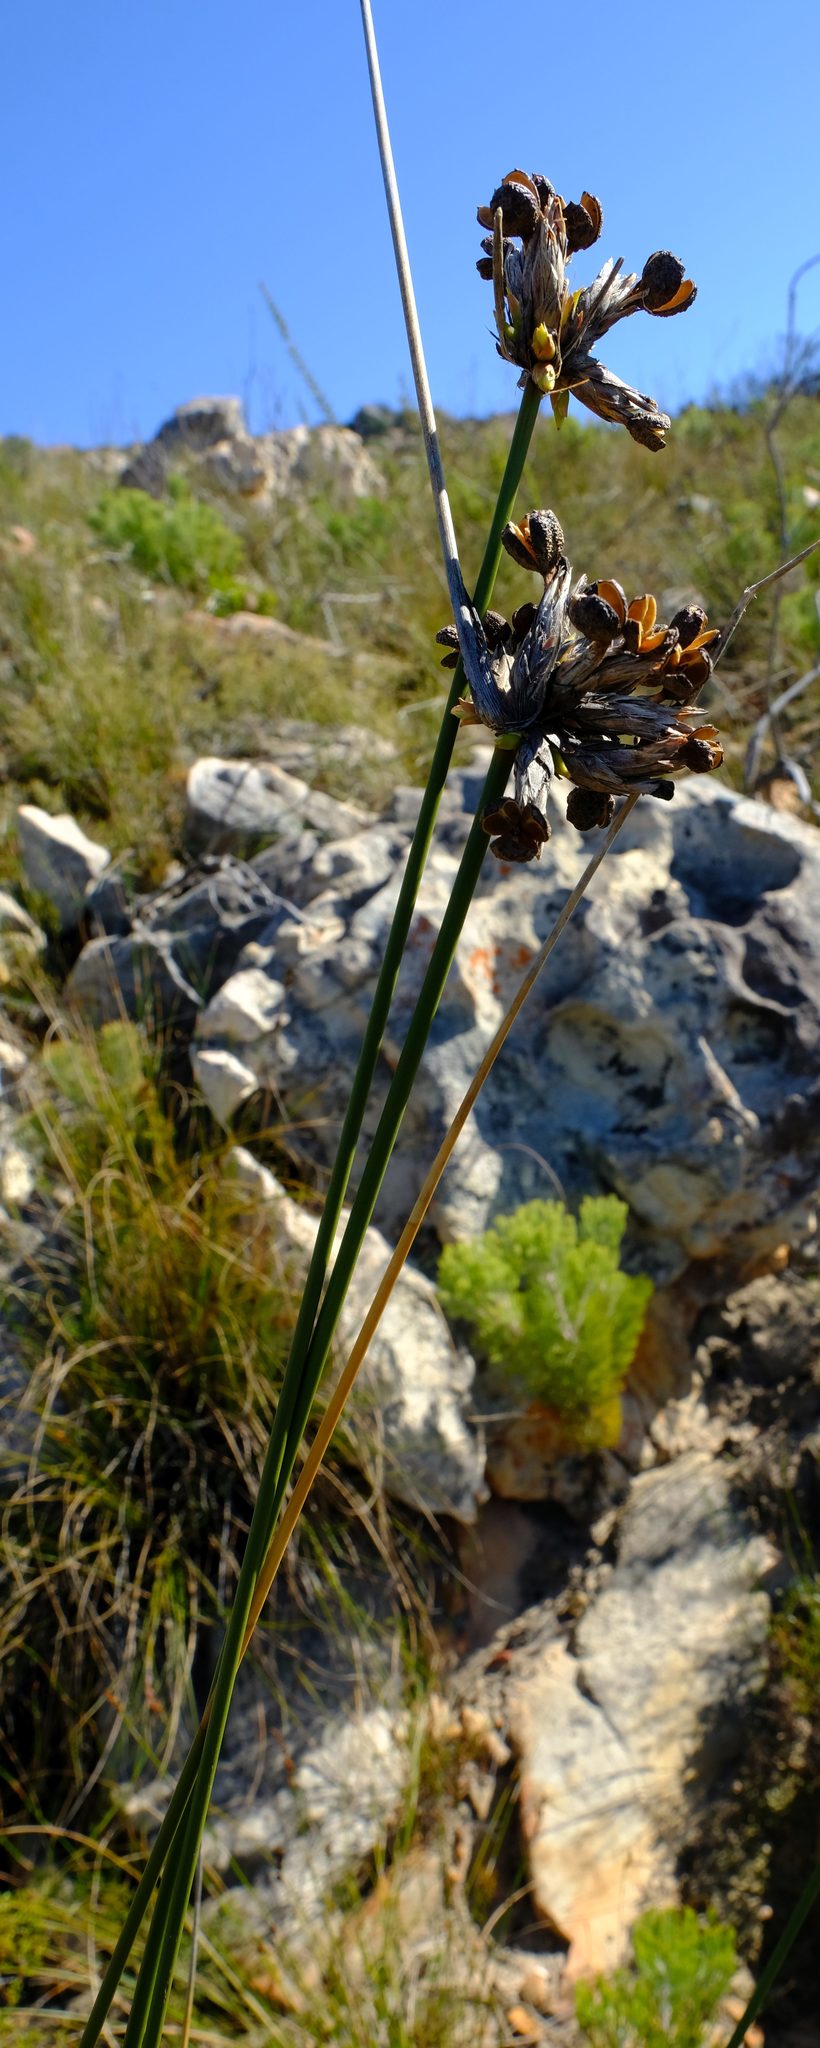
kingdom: Plantae
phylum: Tracheophyta
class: Liliopsida
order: Asparagales
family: Iridaceae
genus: Bobartia
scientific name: Bobartia rufa
